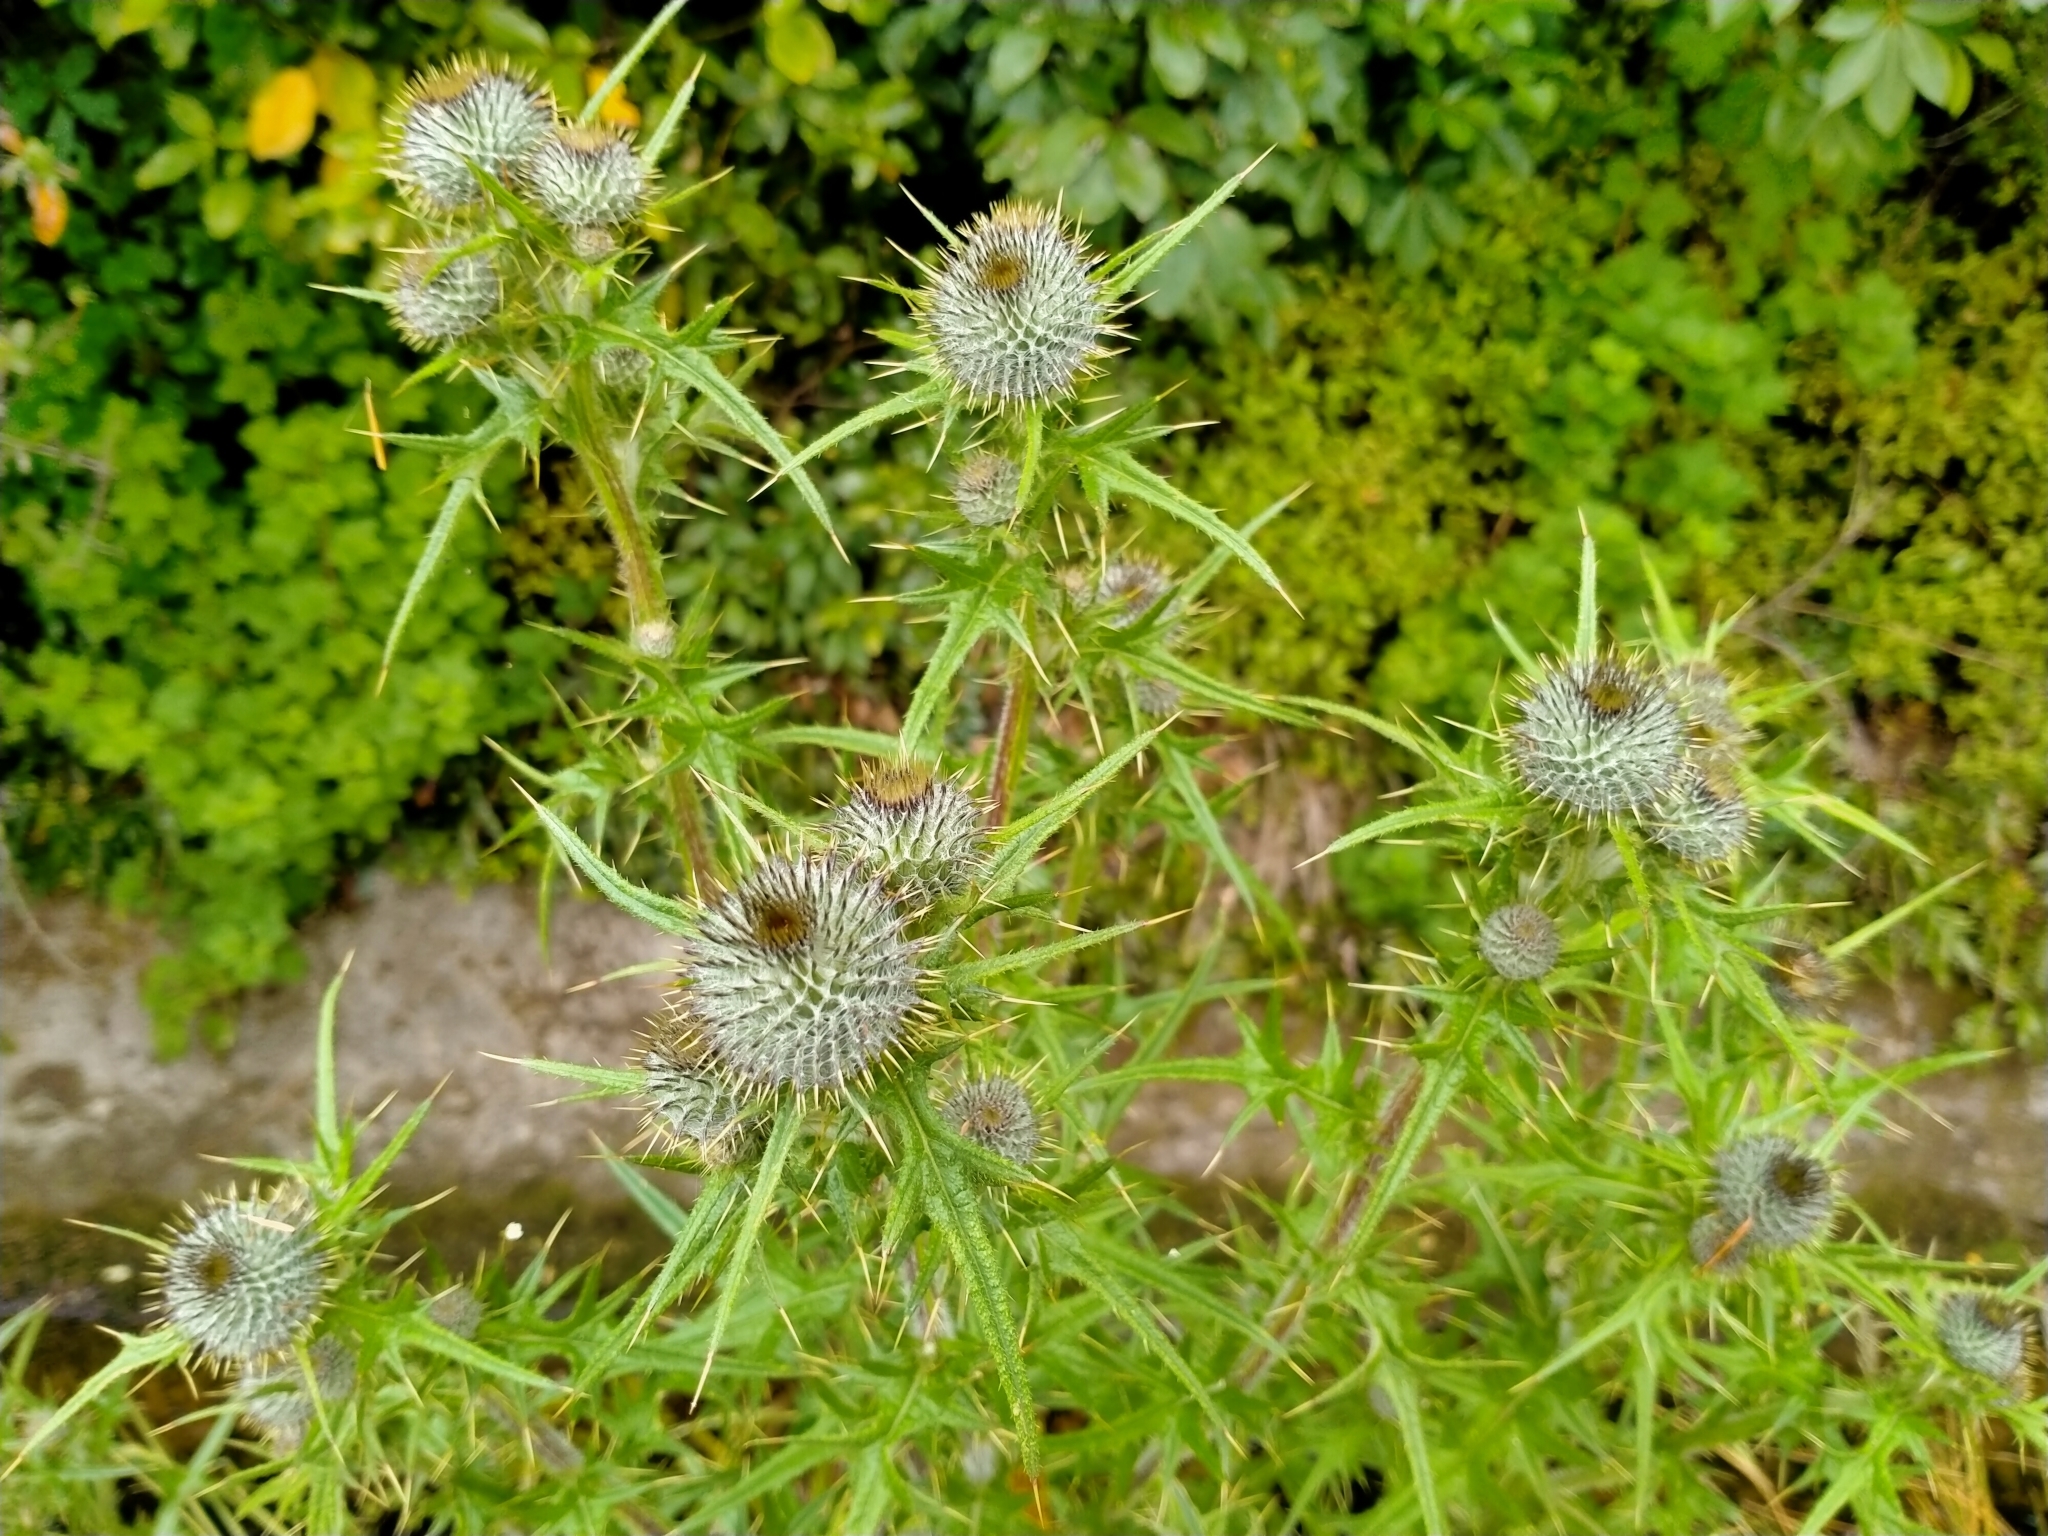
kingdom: Plantae
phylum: Tracheophyta
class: Magnoliopsida
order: Asterales
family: Asteraceae
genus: Cirsium
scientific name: Cirsium vulgare
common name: Bull thistle
